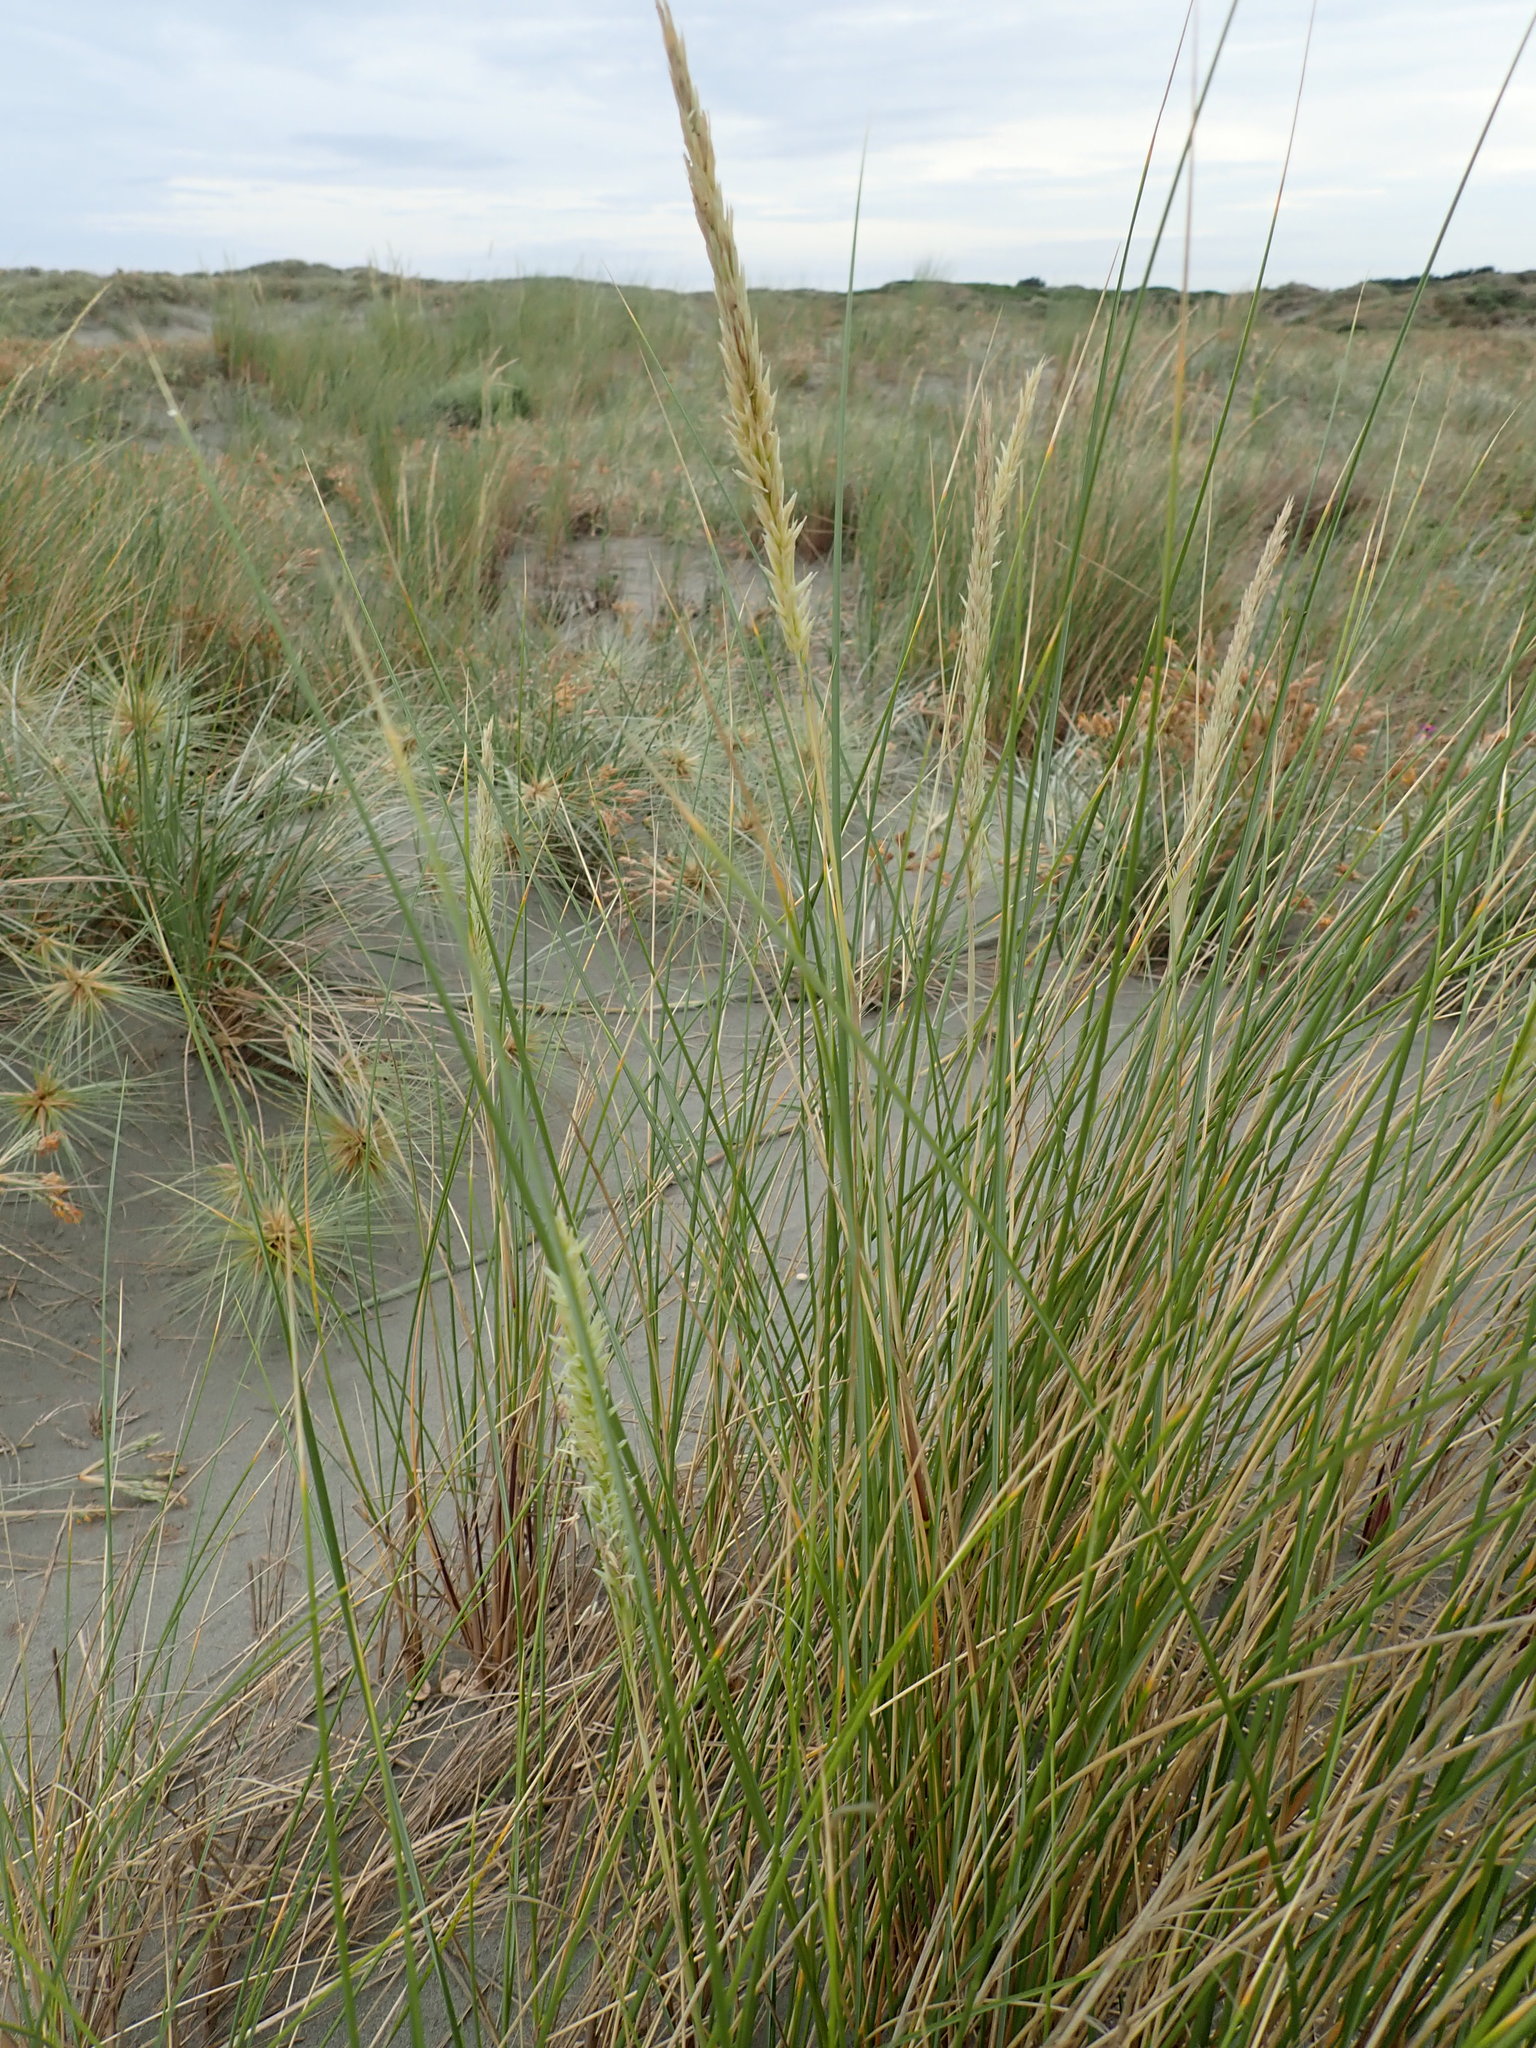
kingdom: Plantae
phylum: Tracheophyta
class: Liliopsida
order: Poales
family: Poaceae
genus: Calamagrostis
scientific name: Calamagrostis arenaria
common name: European beachgrass
